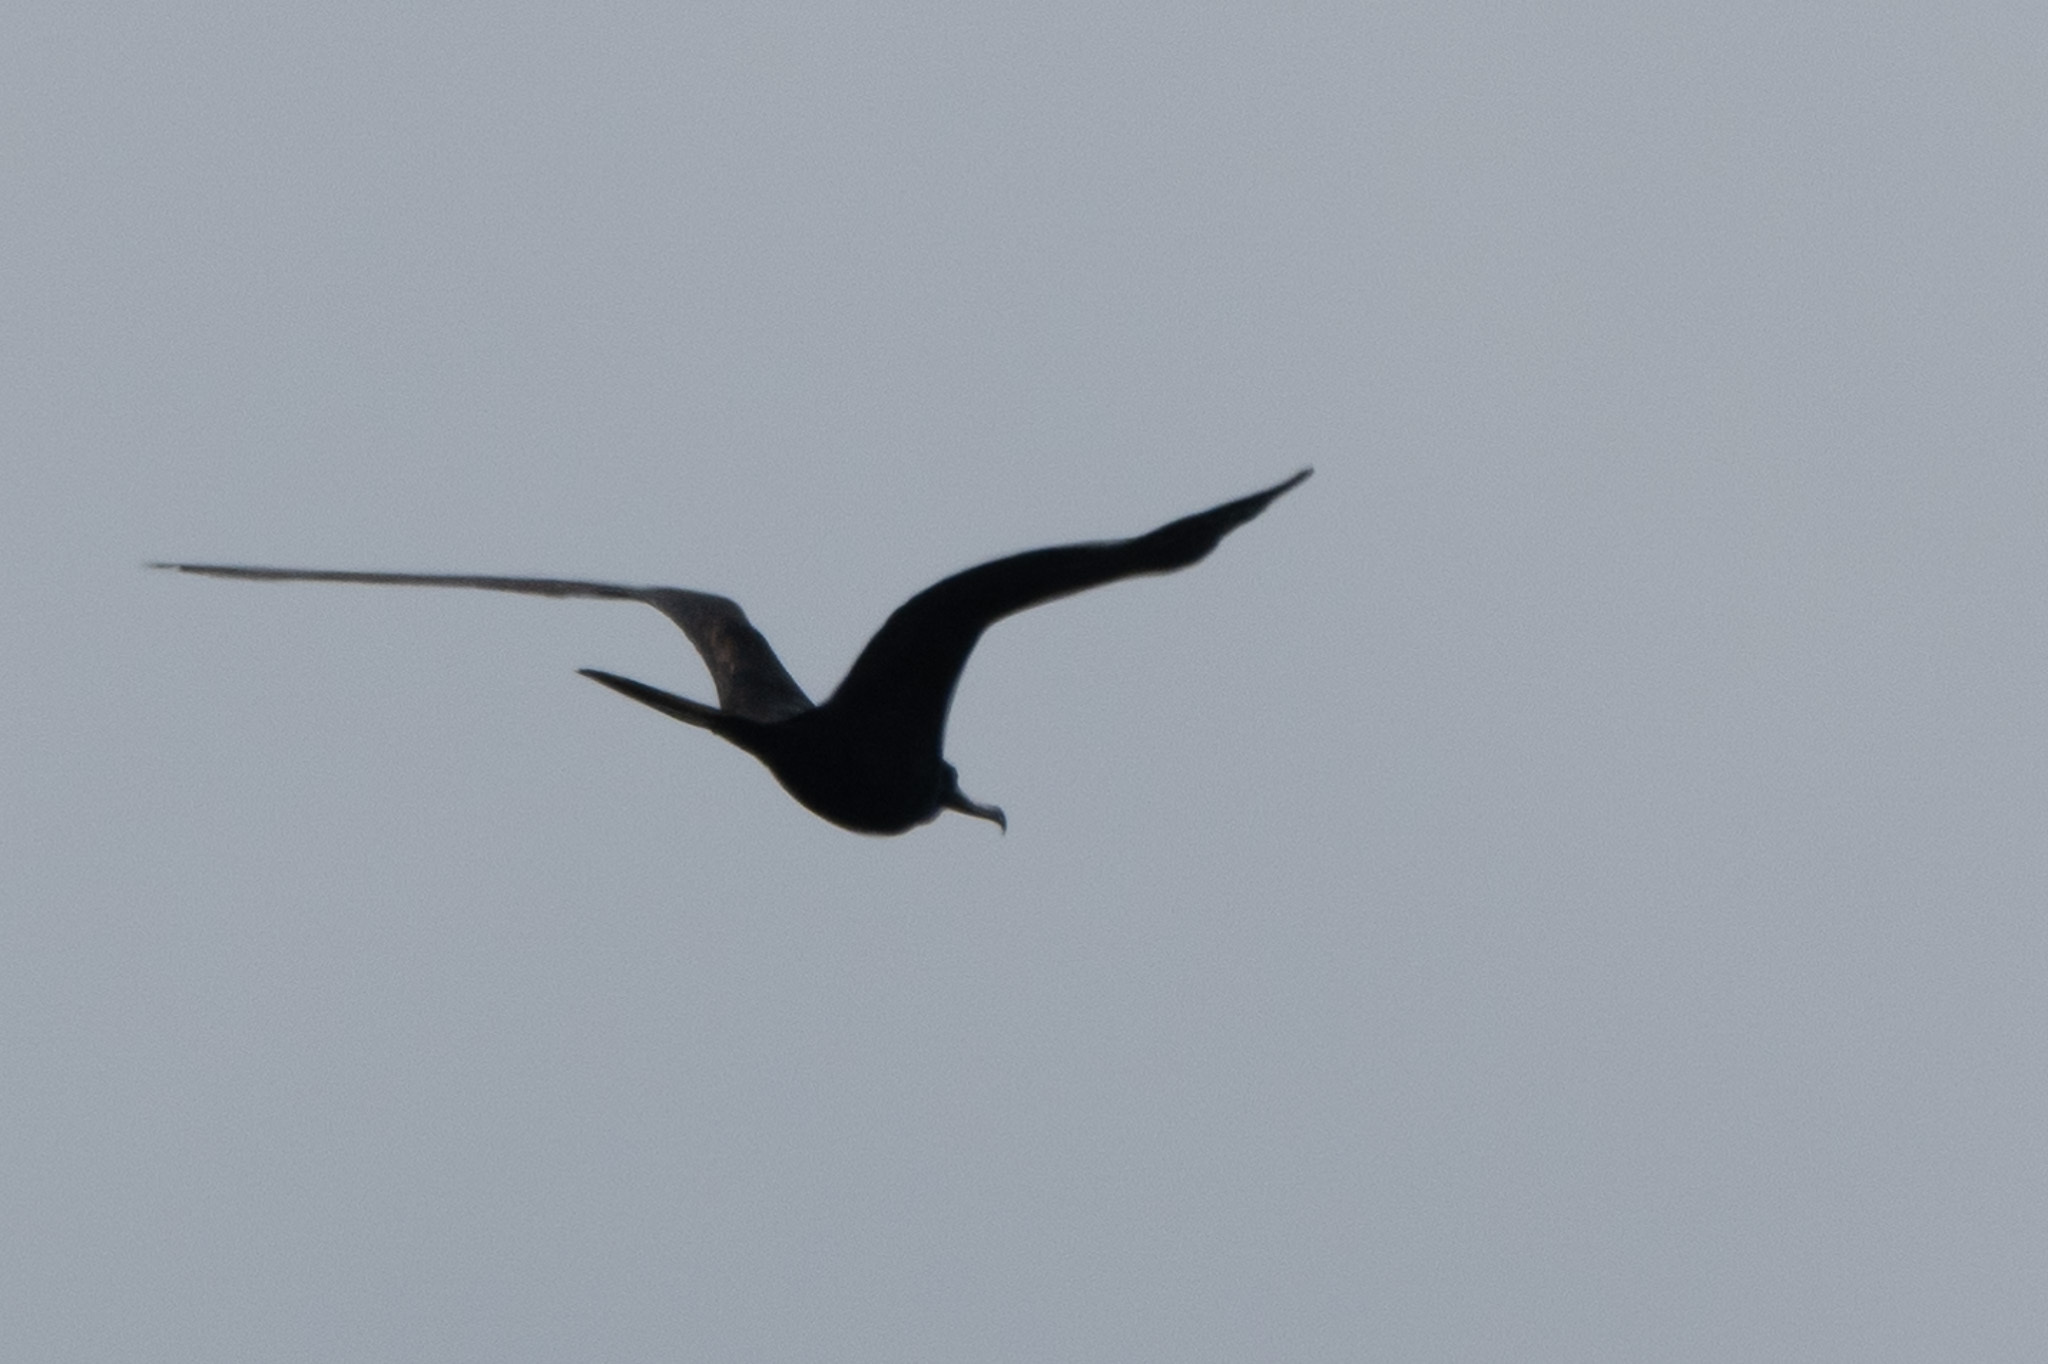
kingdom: Animalia
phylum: Chordata
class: Aves
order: Suliformes
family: Fregatidae
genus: Fregata
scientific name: Fregata magnificens
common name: Magnificent frigatebird
